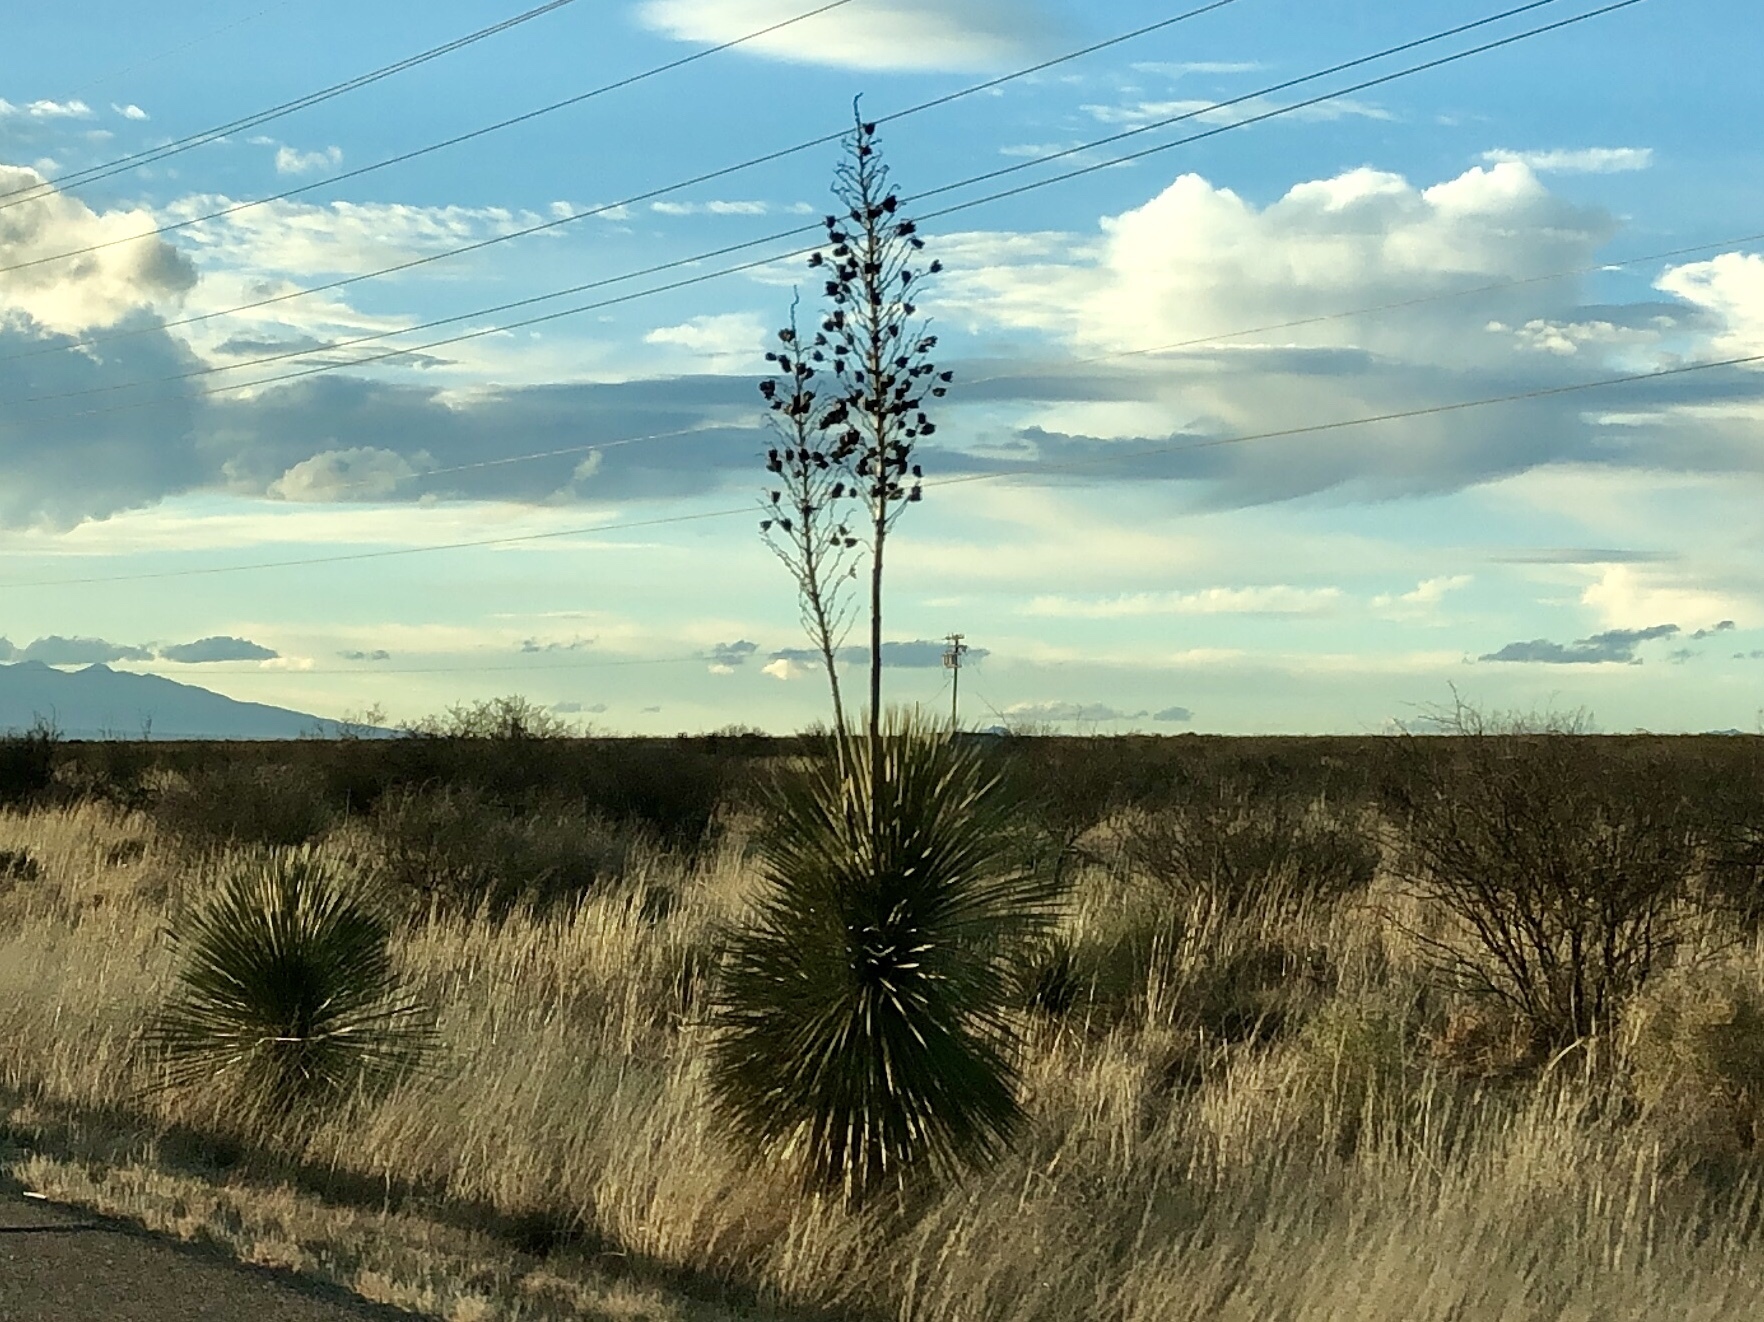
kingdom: Plantae
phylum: Tracheophyta
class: Liliopsida
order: Asparagales
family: Asparagaceae
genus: Yucca
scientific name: Yucca elata
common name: Palmella
